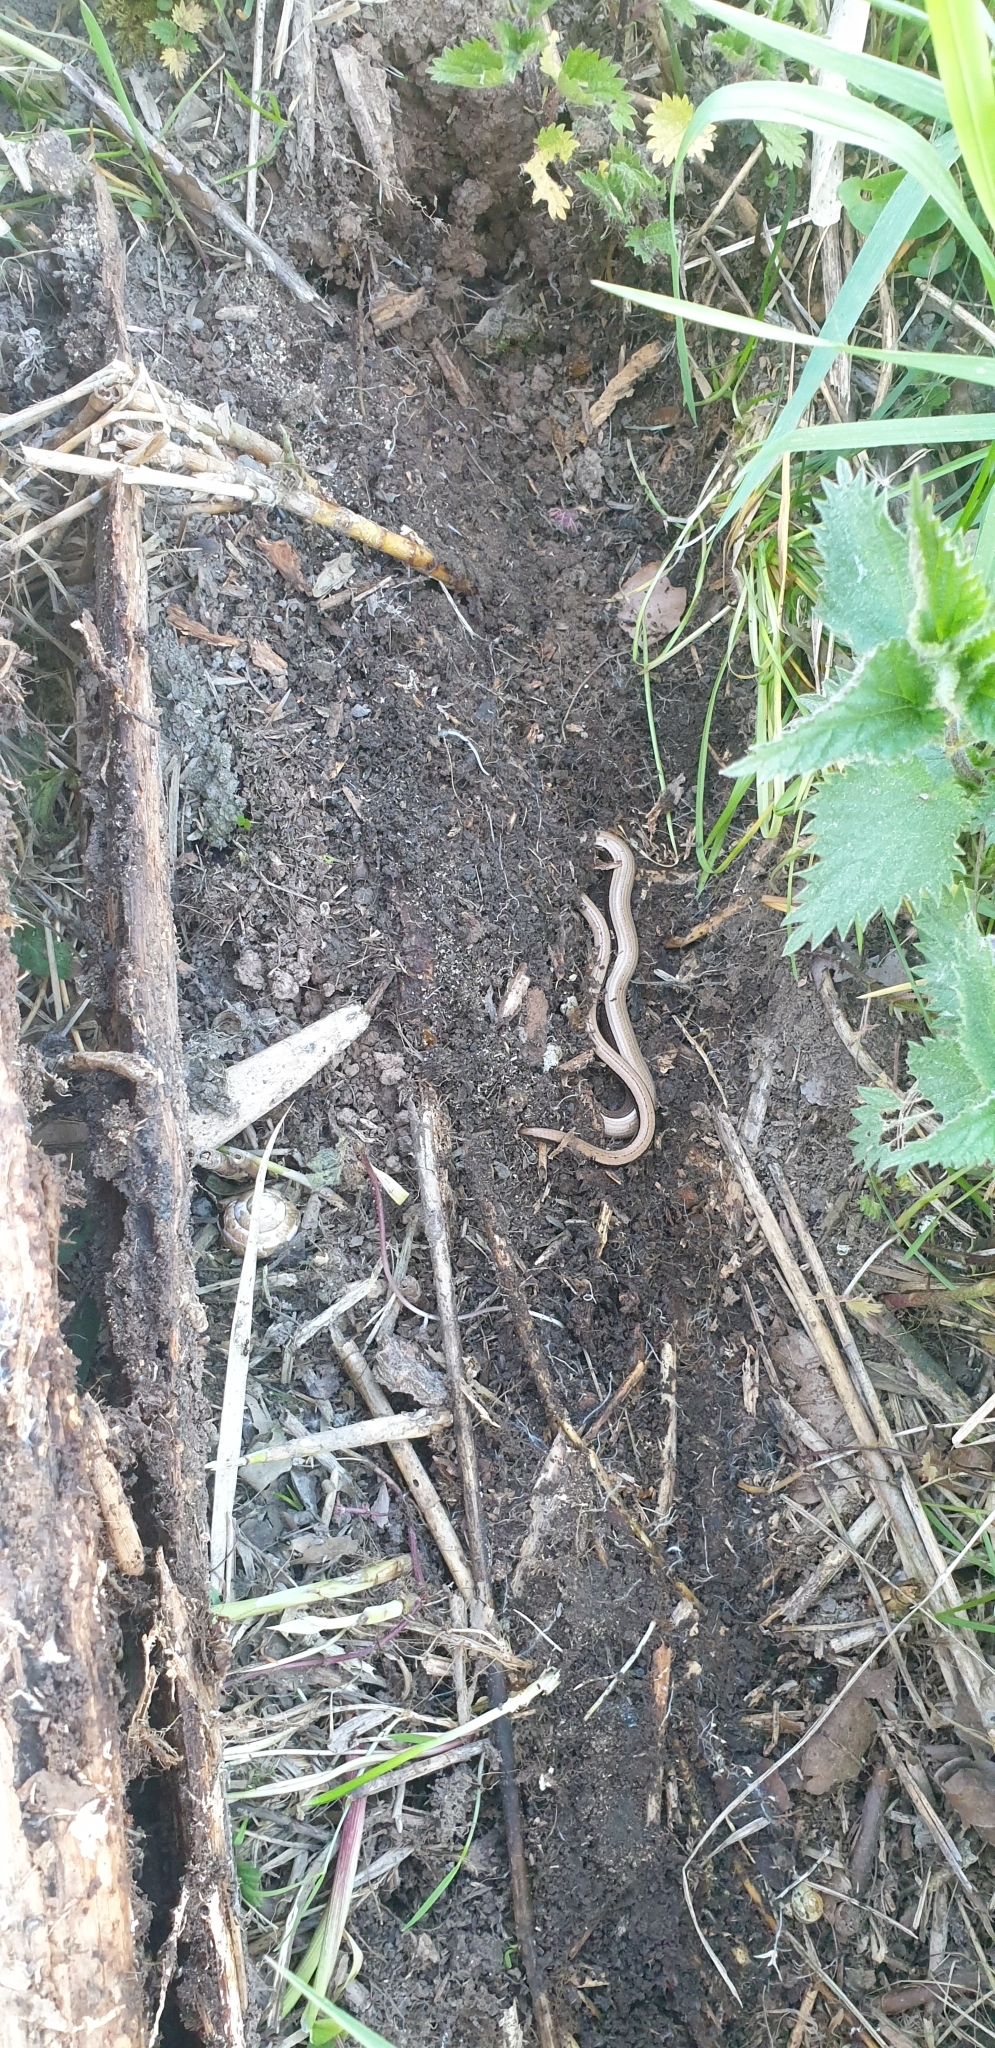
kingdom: Animalia
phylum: Chordata
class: Squamata
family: Anguidae
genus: Anguis
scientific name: Anguis fragilis
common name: Slow worm
